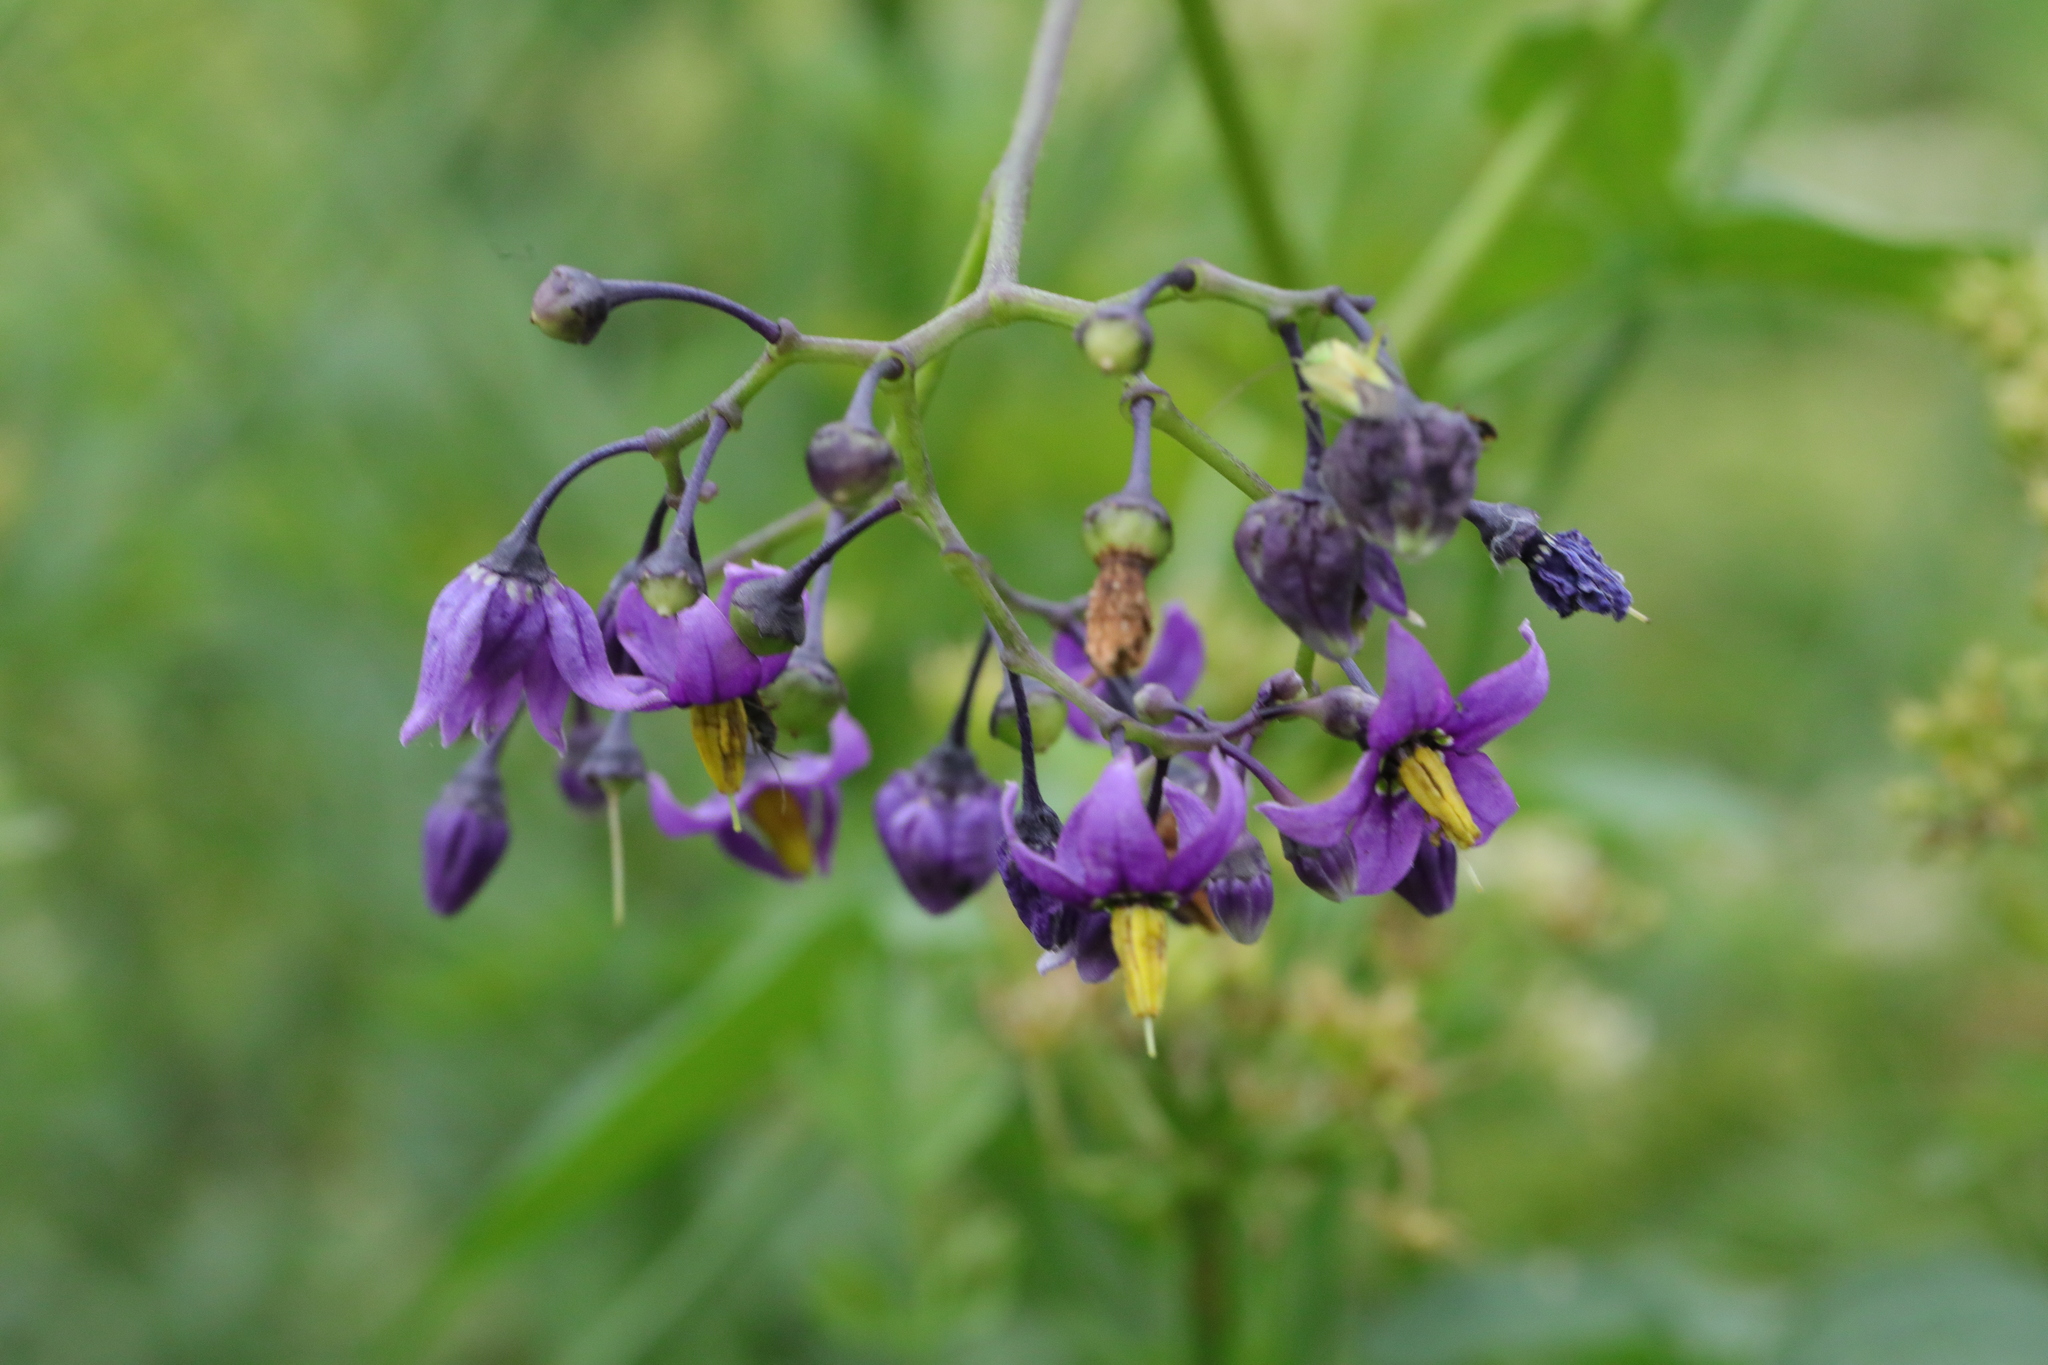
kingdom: Plantae
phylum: Tracheophyta
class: Magnoliopsida
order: Solanales
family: Solanaceae
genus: Solanum
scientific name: Solanum dulcamara
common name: Climbing nightshade
